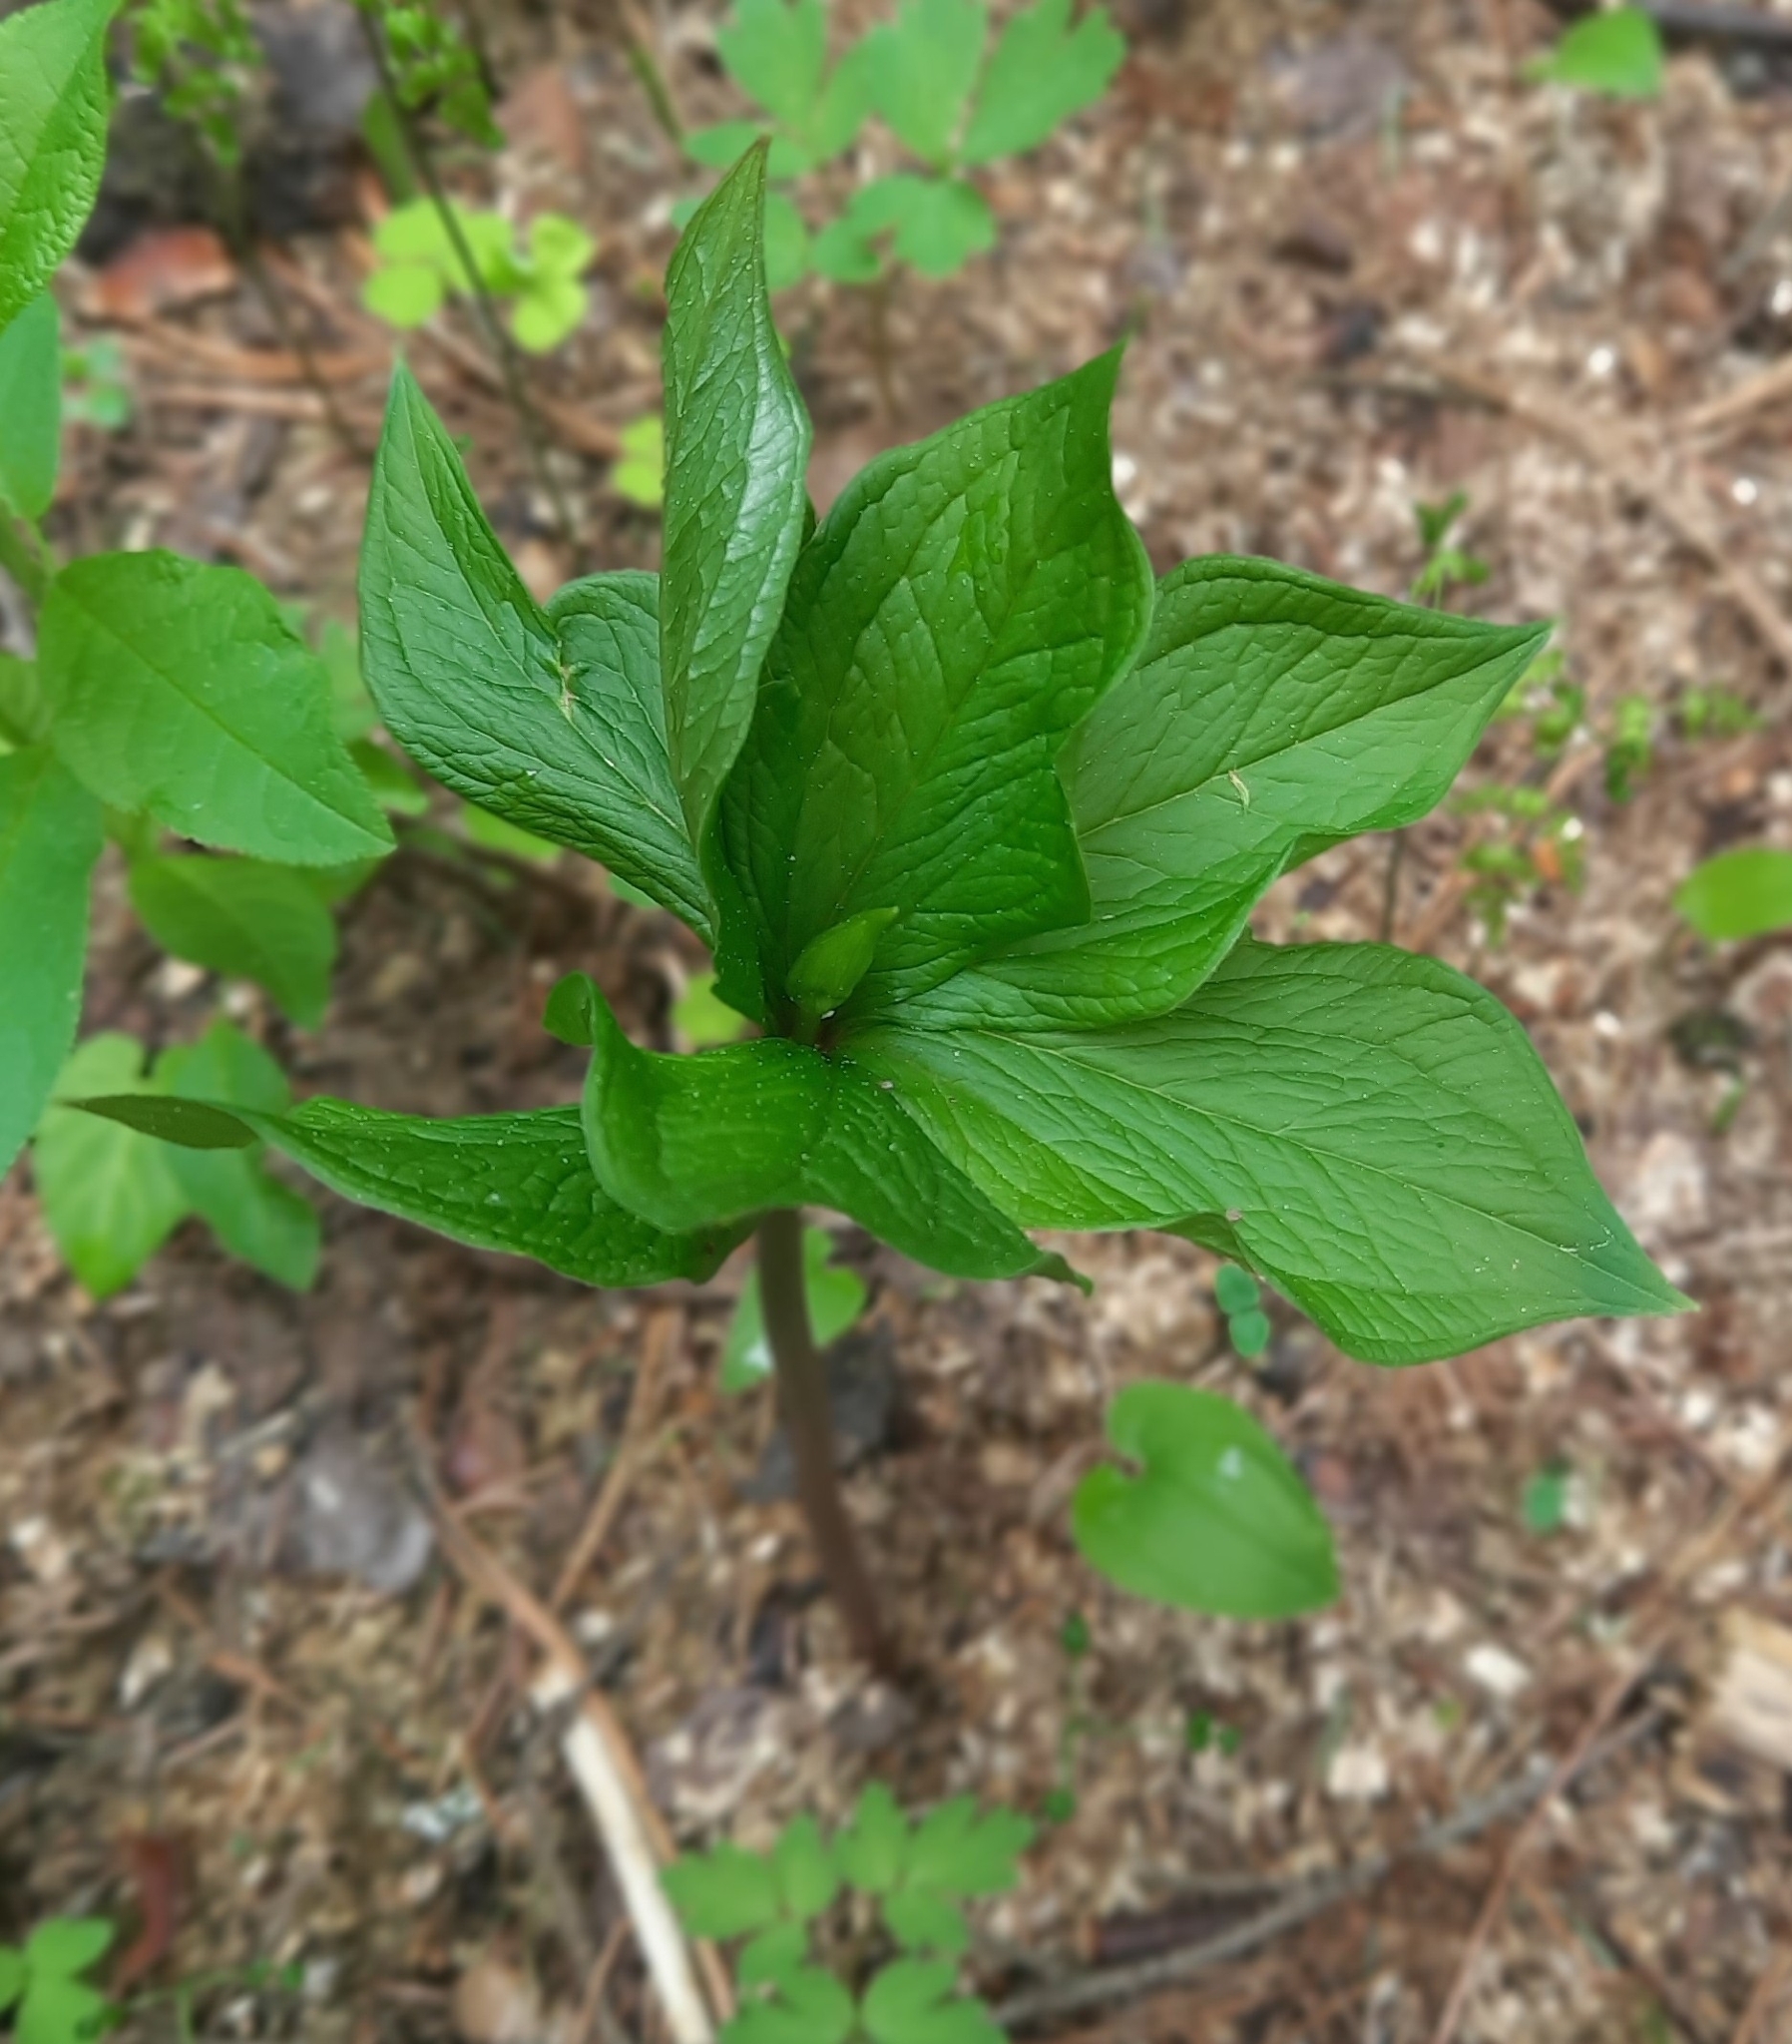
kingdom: Plantae
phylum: Tracheophyta
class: Liliopsida
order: Liliales
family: Melanthiaceae
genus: Paris
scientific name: Paris quadrifolia
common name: Herb-paris
